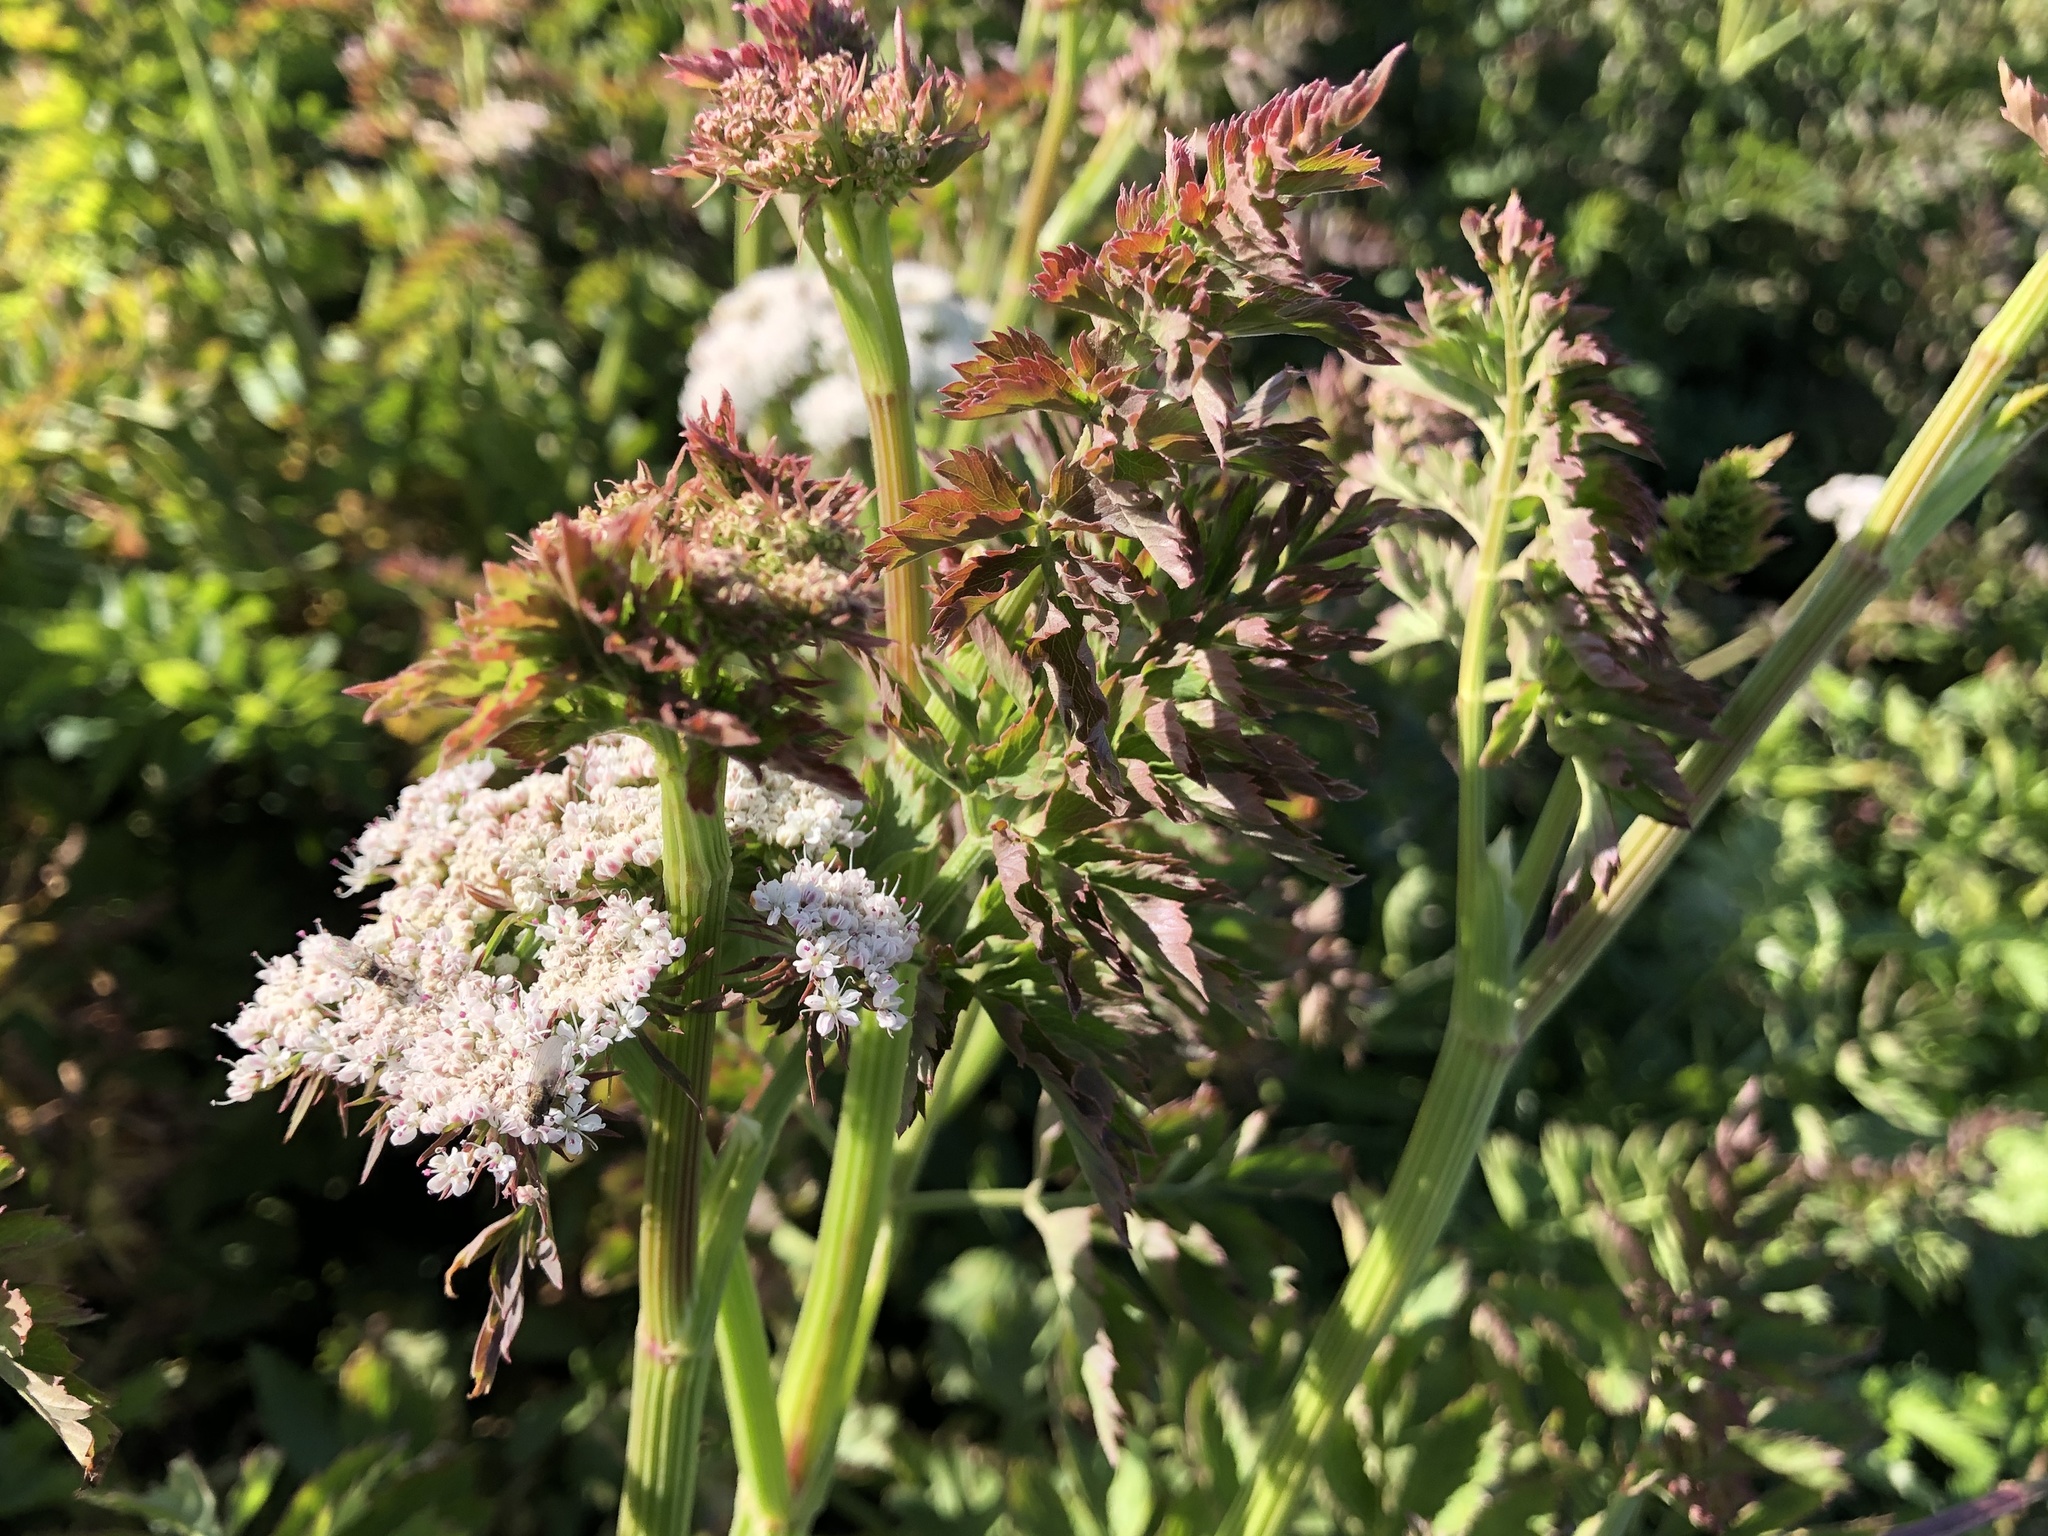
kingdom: Plantae
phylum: Tracheophyta
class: Magnoliopsida
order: Apiales
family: Apiaceae
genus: Oenanthe
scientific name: Oenanthe sarmentosa
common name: American water-parsley
